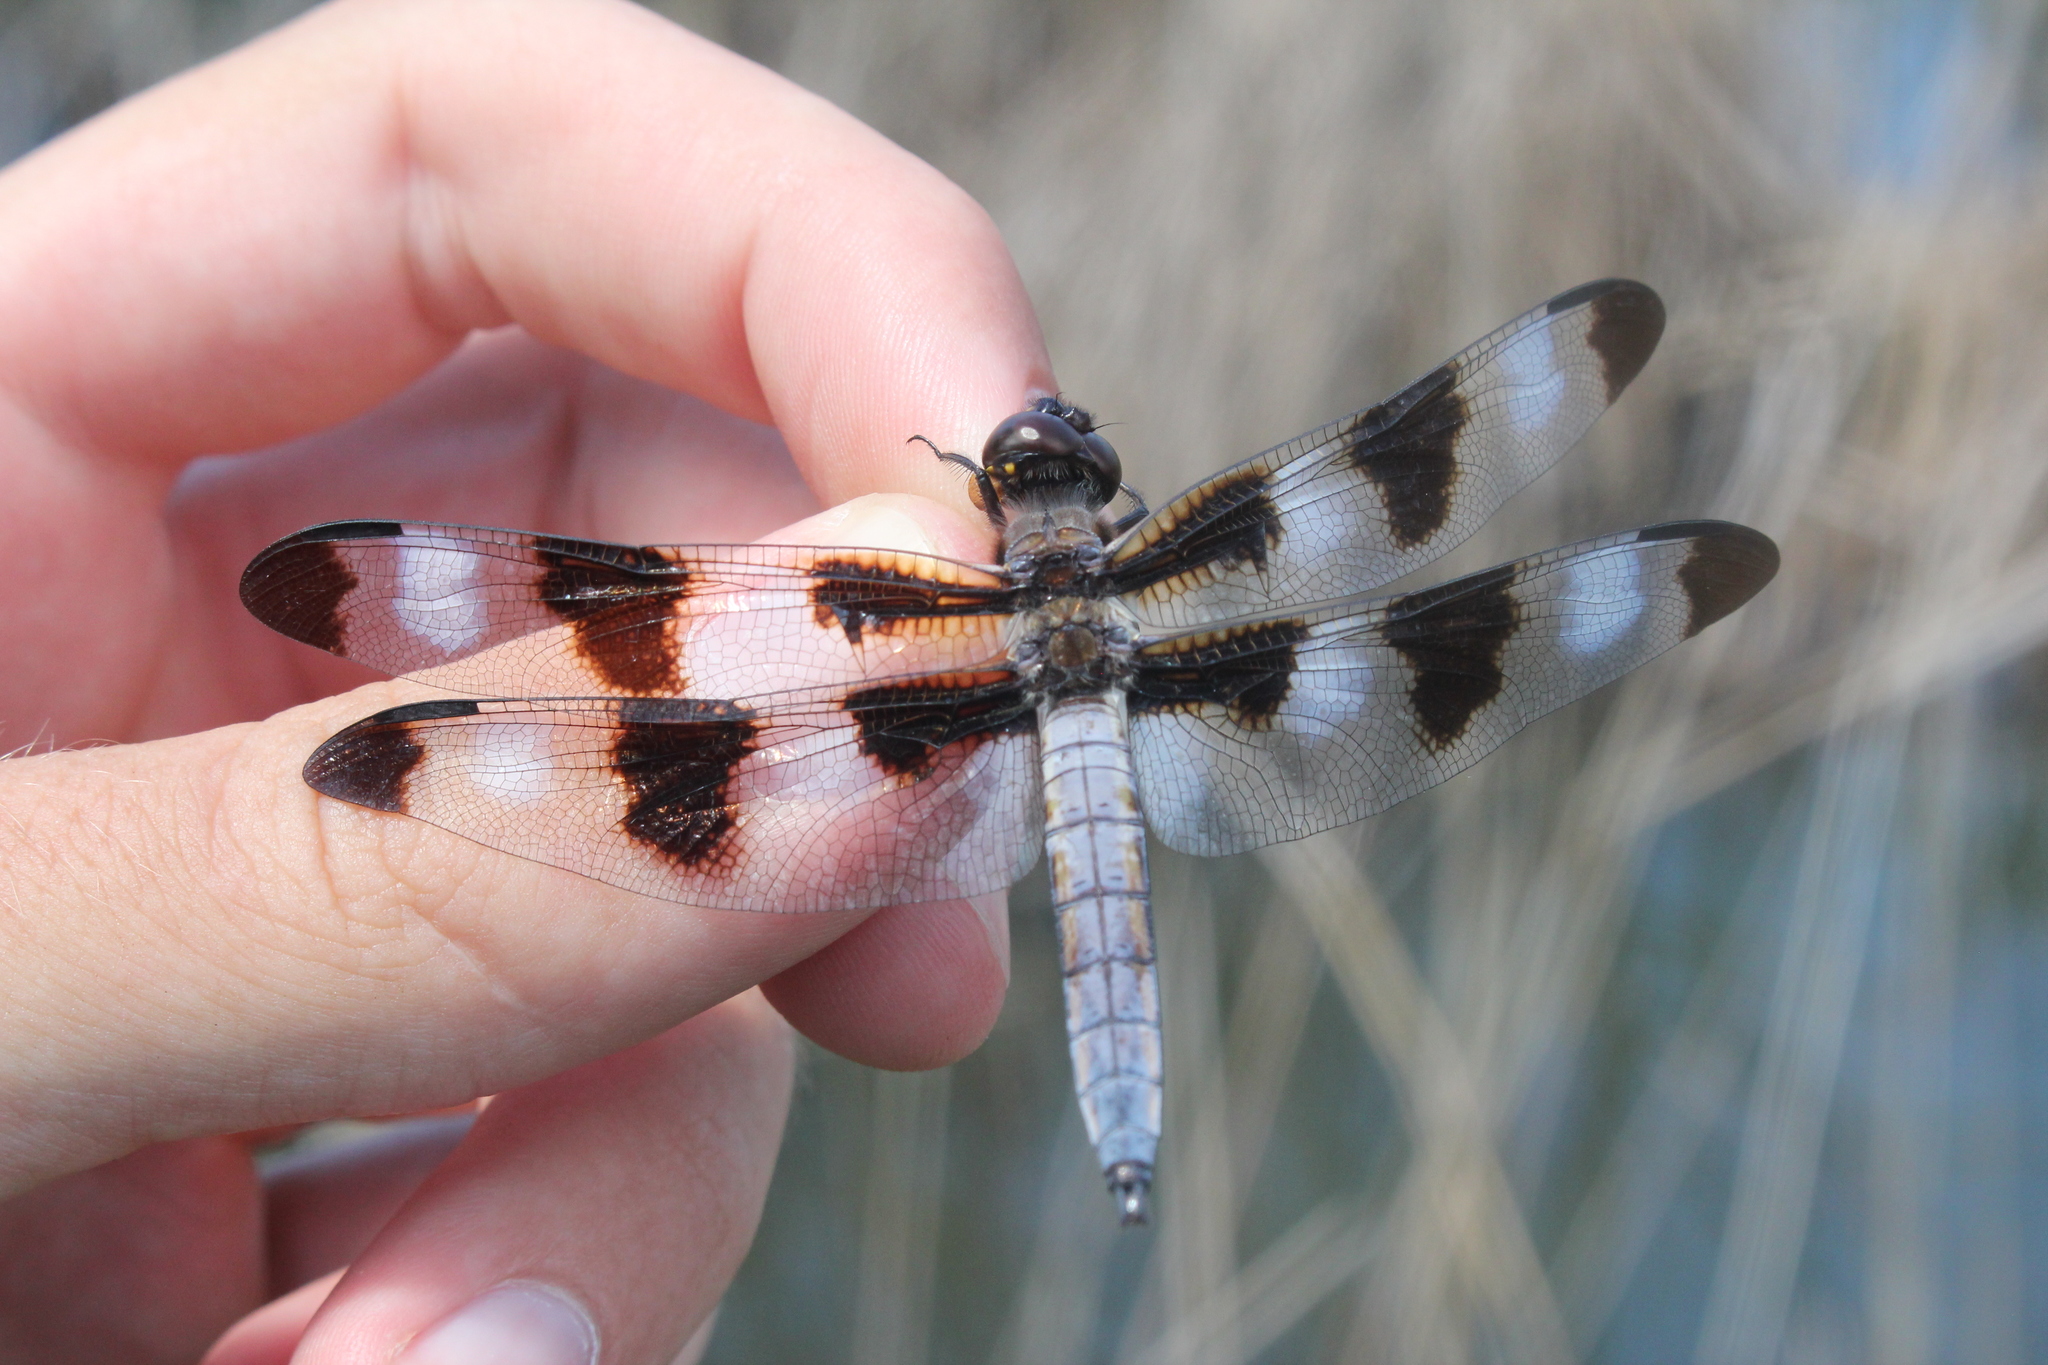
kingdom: Animalia
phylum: Arthropoda
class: Insecta
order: Odonata
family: Libellulidae
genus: Libellula
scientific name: Libellula pulchella
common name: Twelve-spotted skimmer
